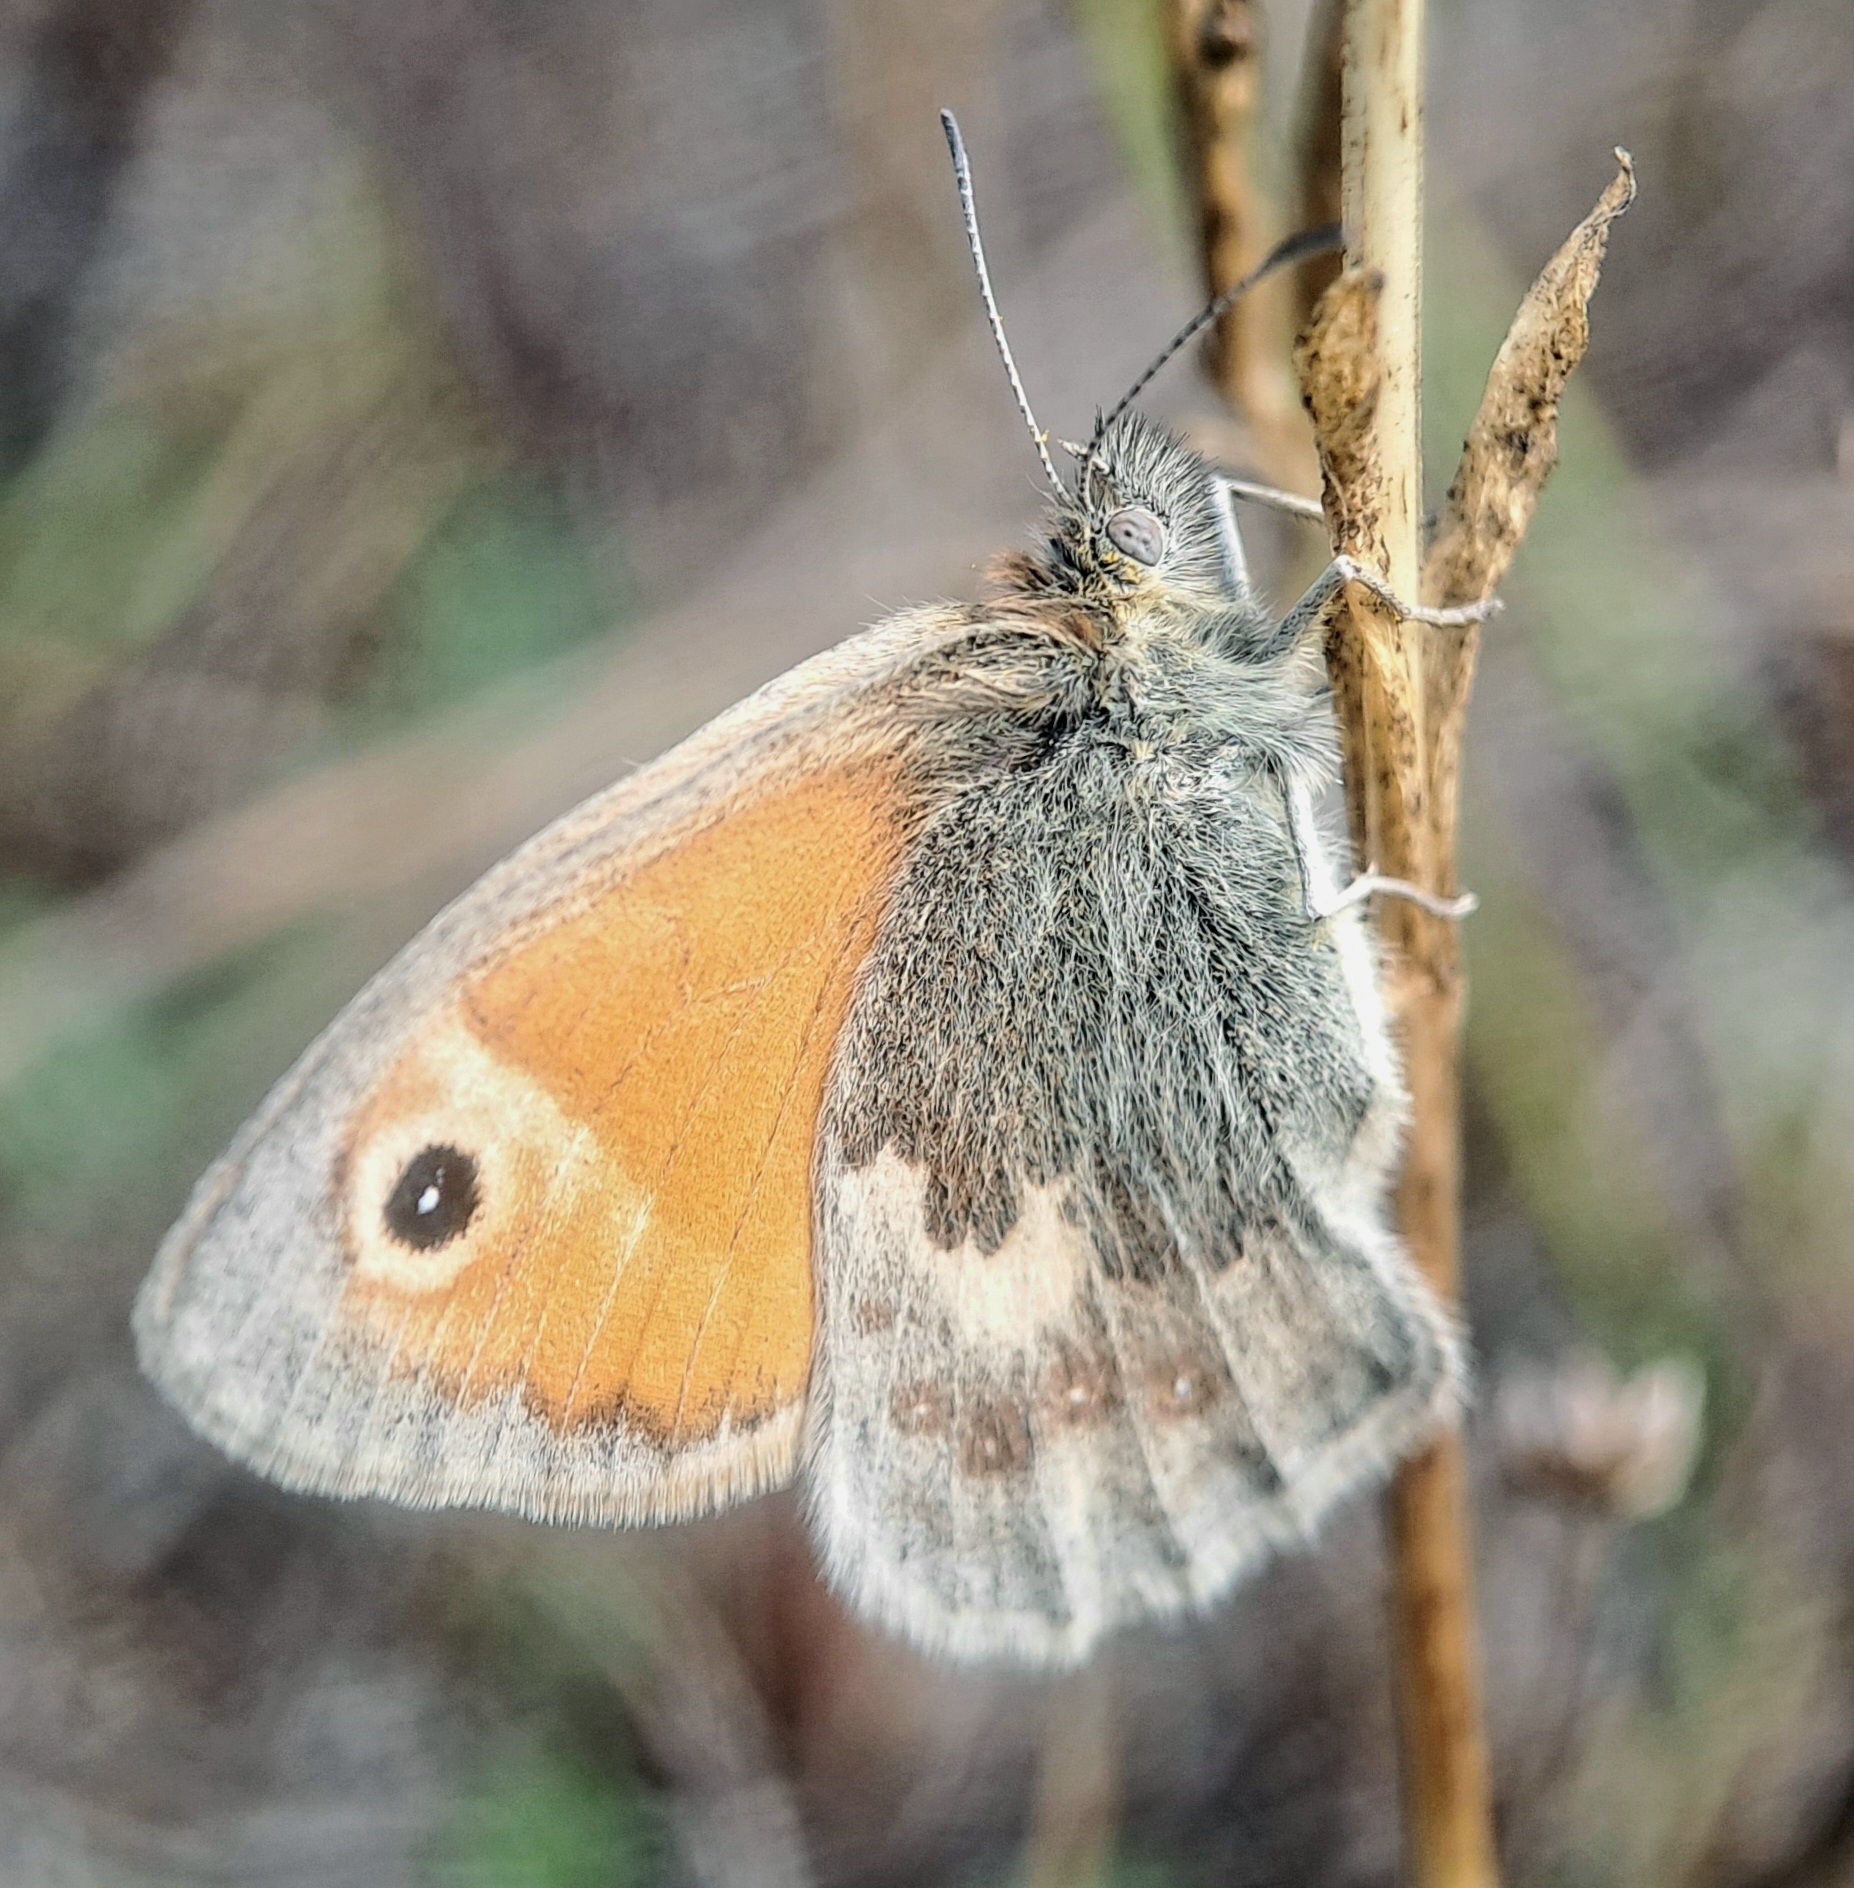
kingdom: Animalia
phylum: Arthropoda
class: Insecta
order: Lepidoptera
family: Nymphalidae
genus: Coenonympha
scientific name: Coenonympha pamphilus
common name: Small heath
